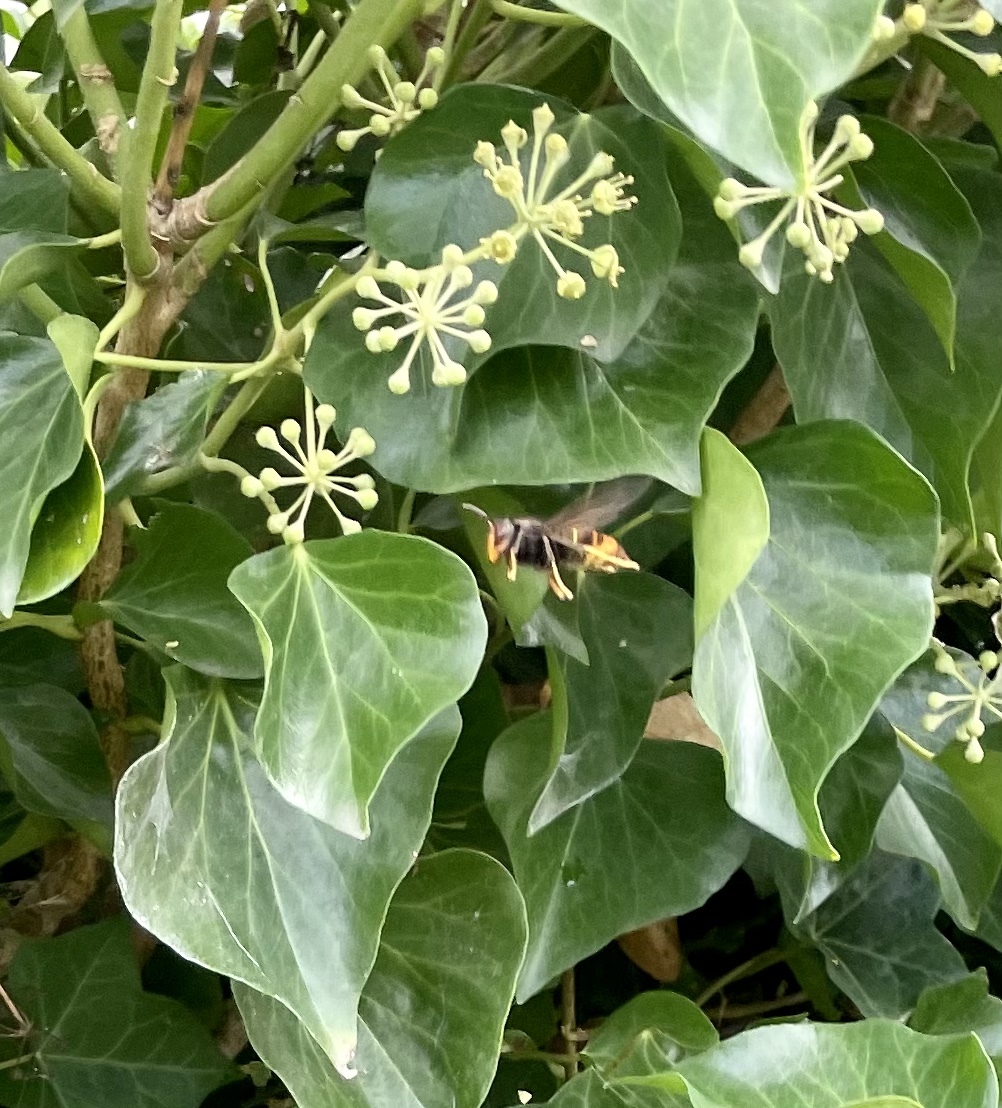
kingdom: Animalia
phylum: Arthropoda
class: Insecta
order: Hymenoptera
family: Vespidae
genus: Vespa
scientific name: Vespa velutina
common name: Asian hornet
